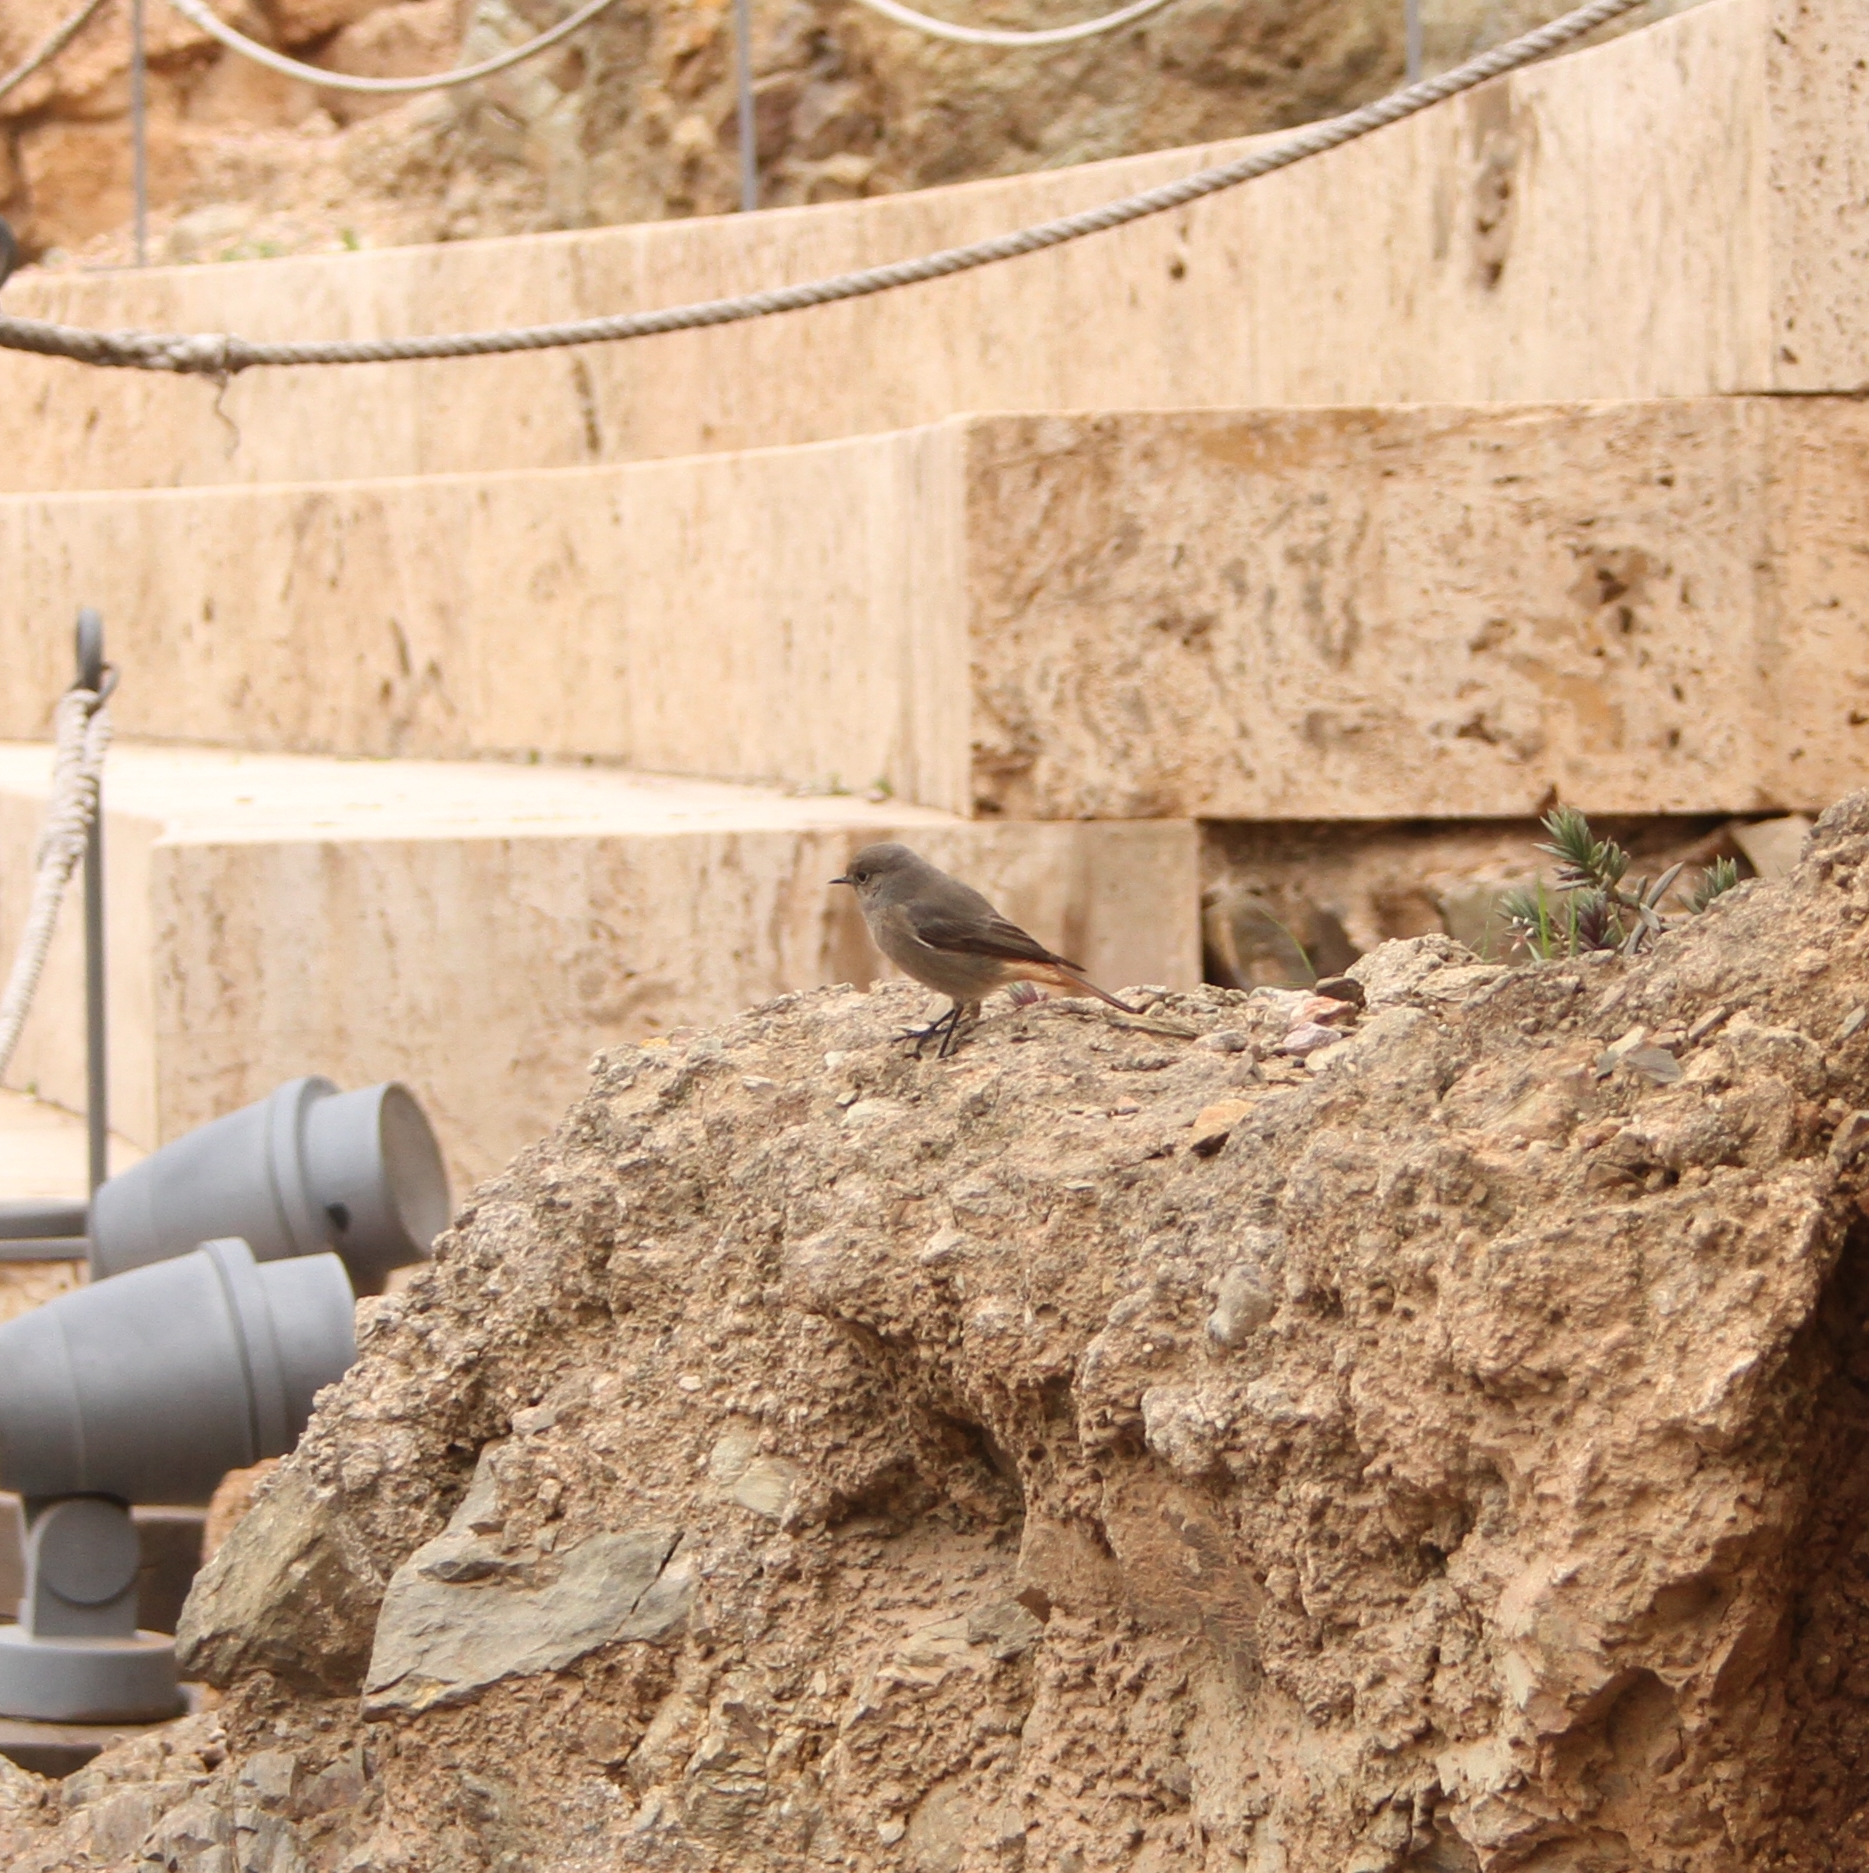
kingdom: Animalia
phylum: Chordata
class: Aves
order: Passeriformes
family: Muscicapidae
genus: Phoenicurus
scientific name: Phoenicurus ochruros
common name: Black redstart
